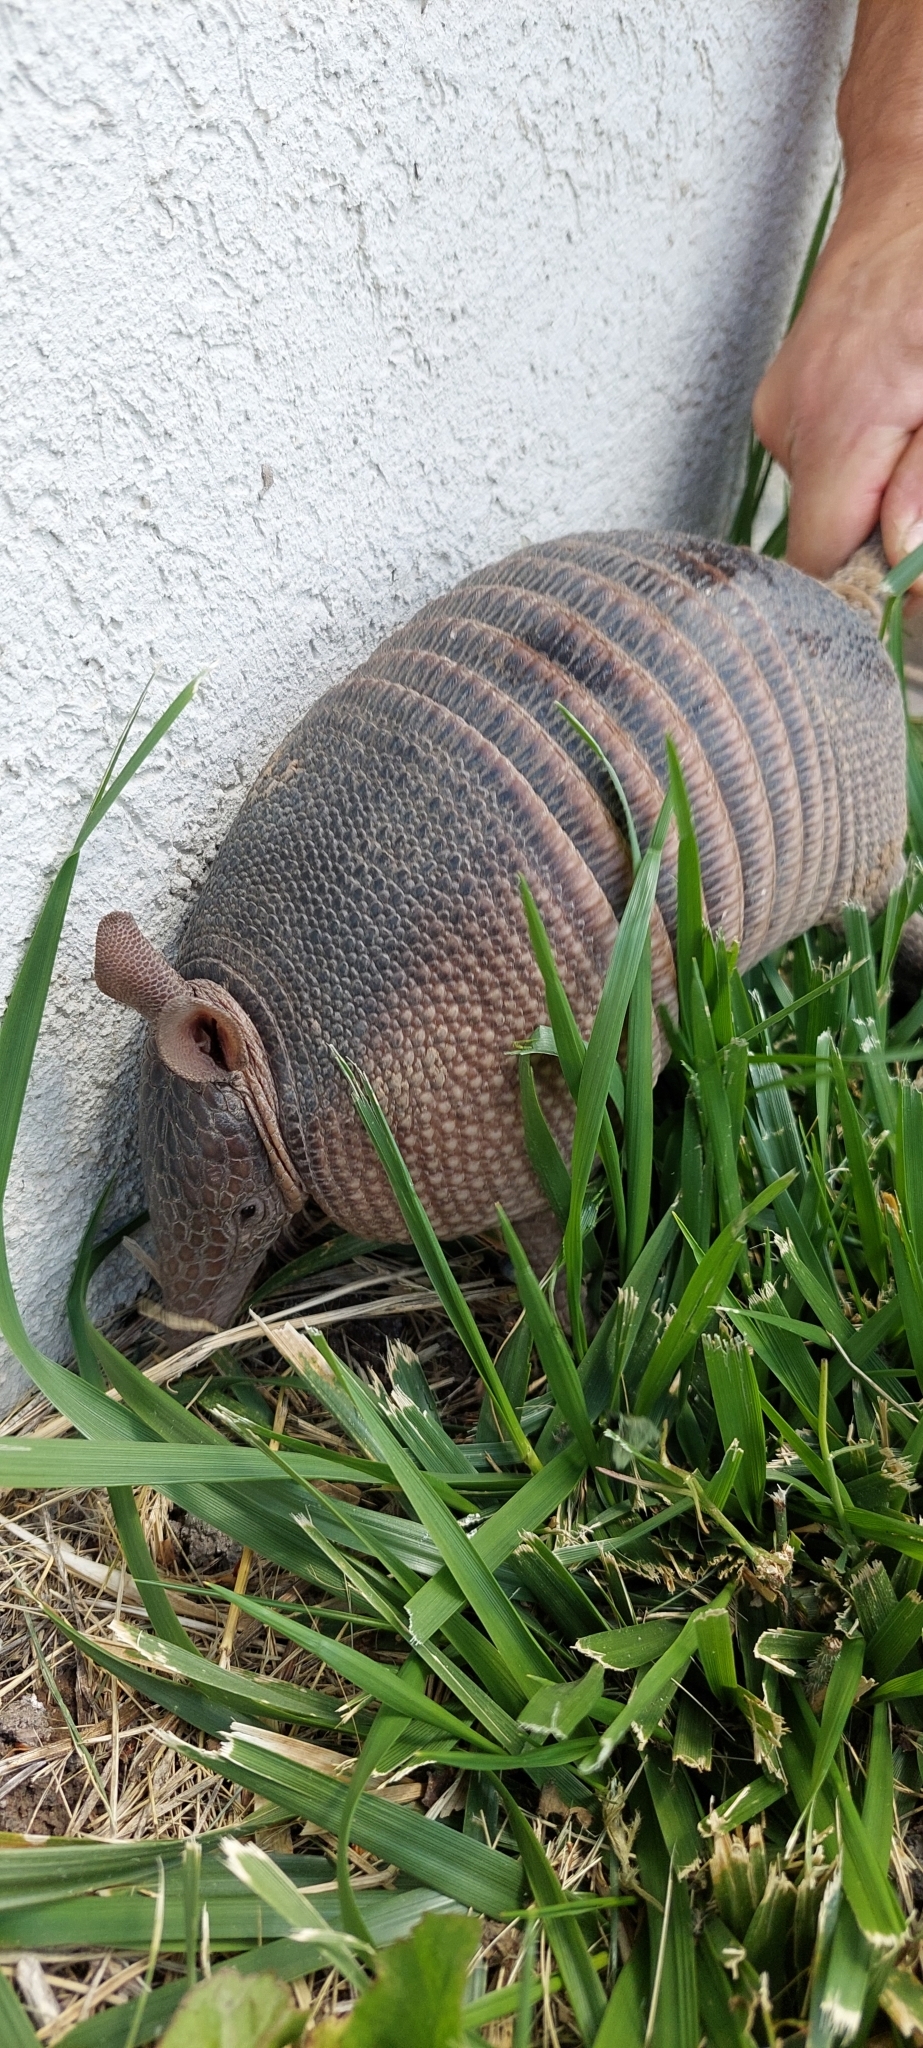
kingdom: Animalia
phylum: Chordata
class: Mammalia
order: Cingulata
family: Dasypodidae
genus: Dasypus
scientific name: Dasypus septemcinctus
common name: Seven-banded armadillo
